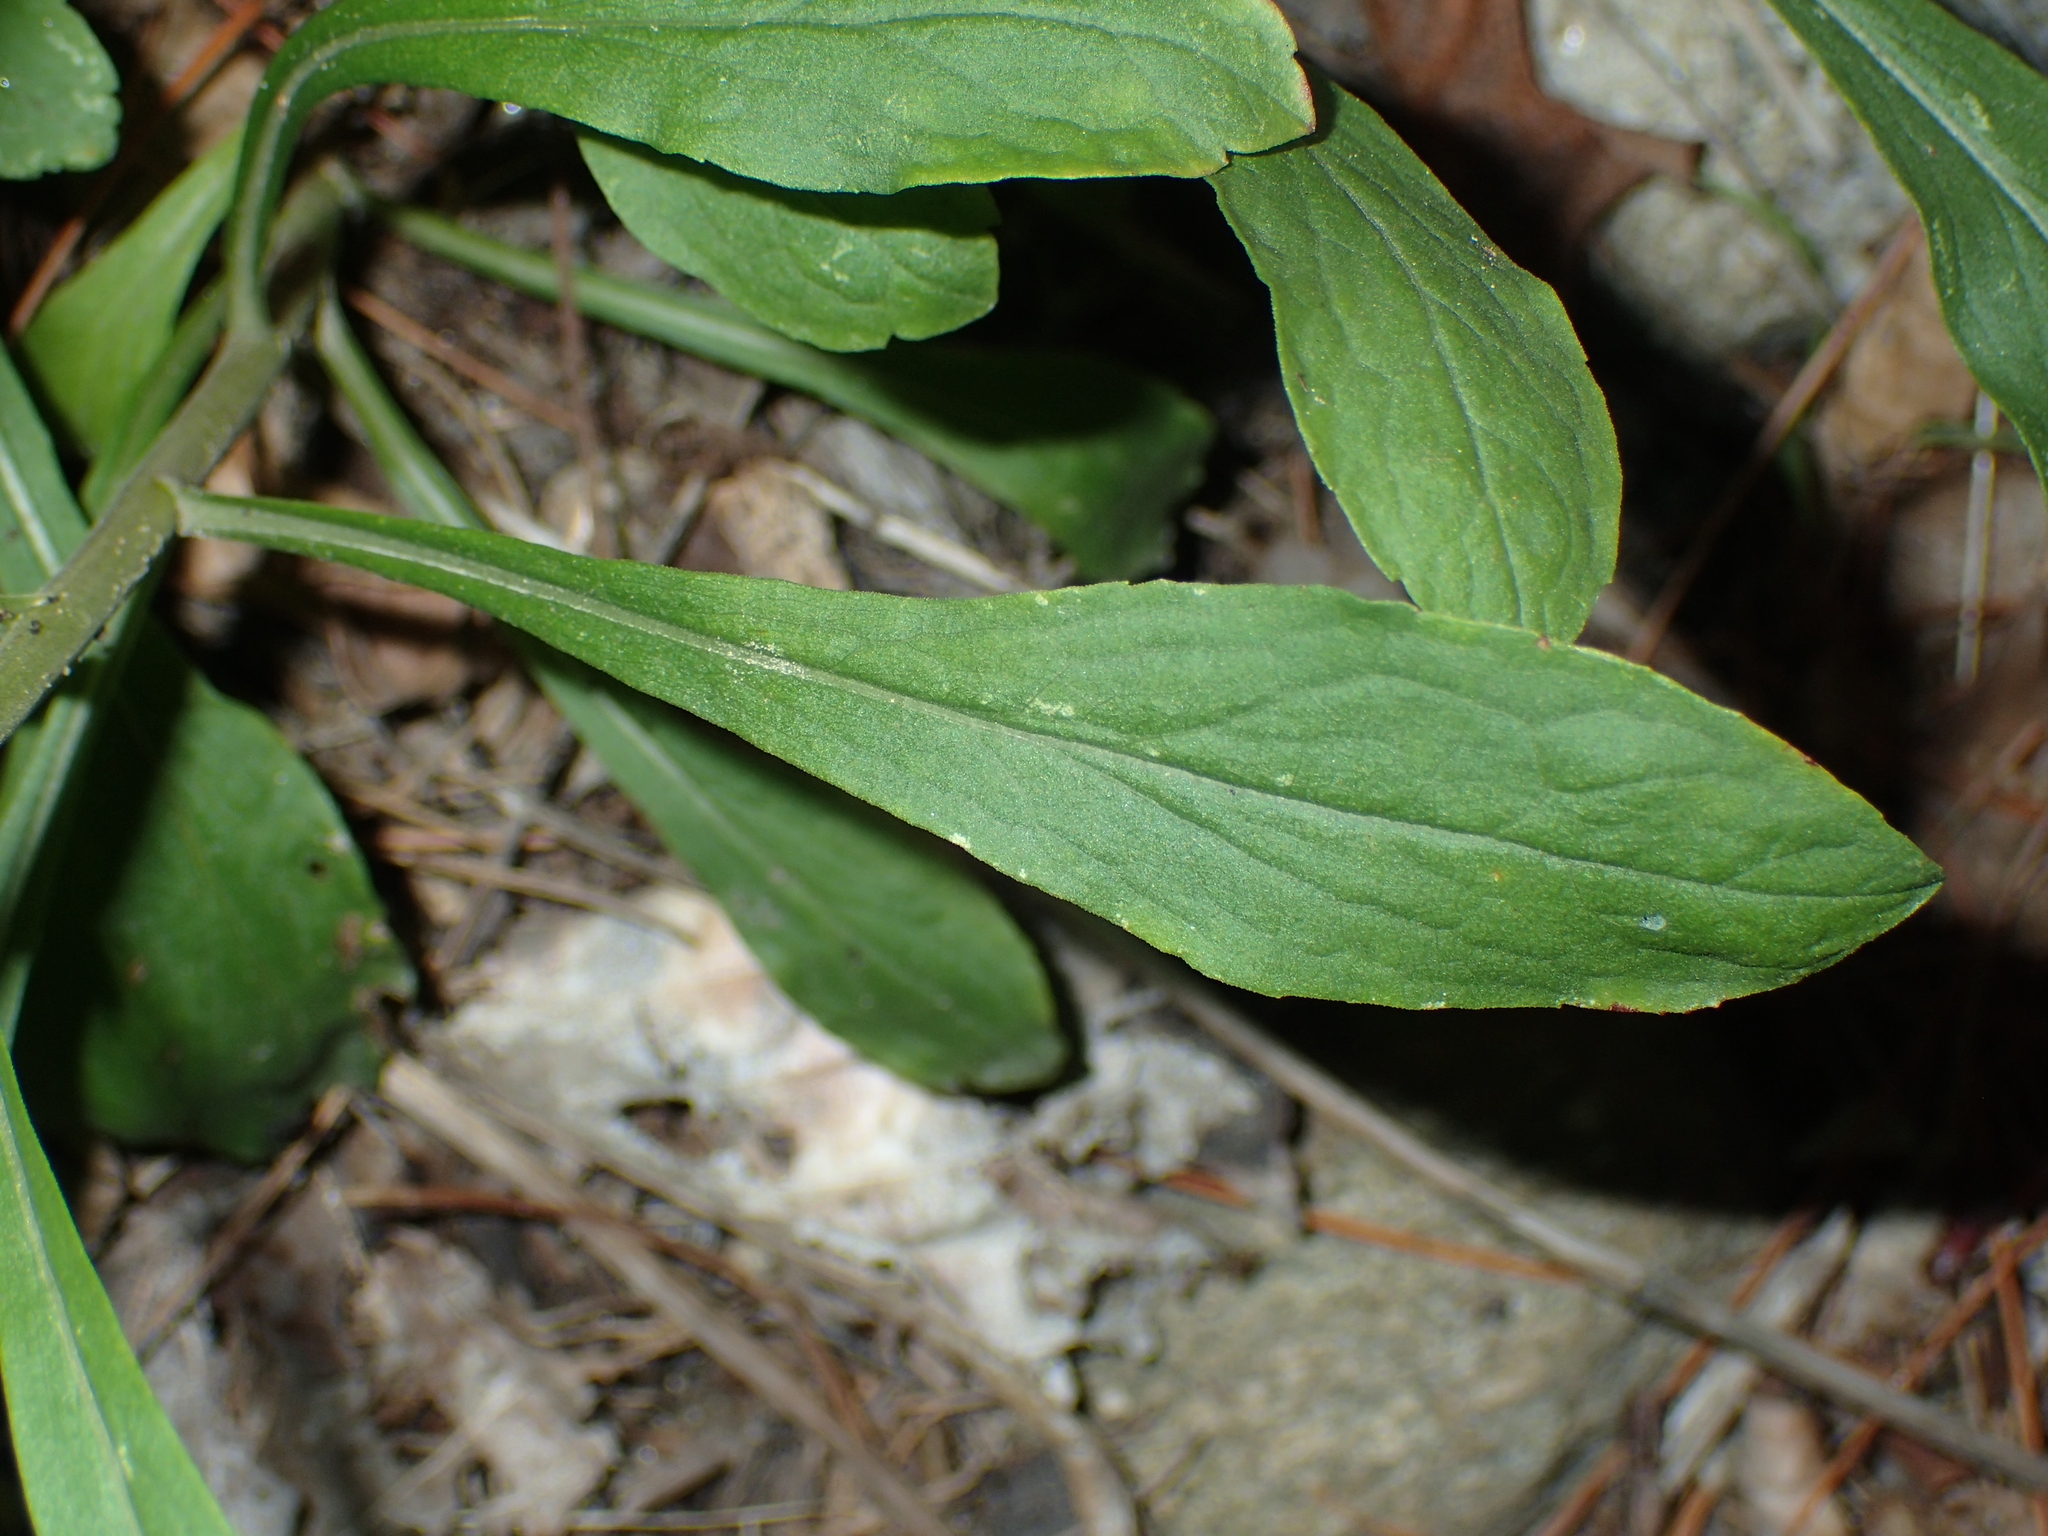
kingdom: Plantae
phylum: Tracheophyta
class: Magnoliopsida
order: Asterales
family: Asteraceae
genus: Solidago
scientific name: Solidago puberula
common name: Downy goldenrod
